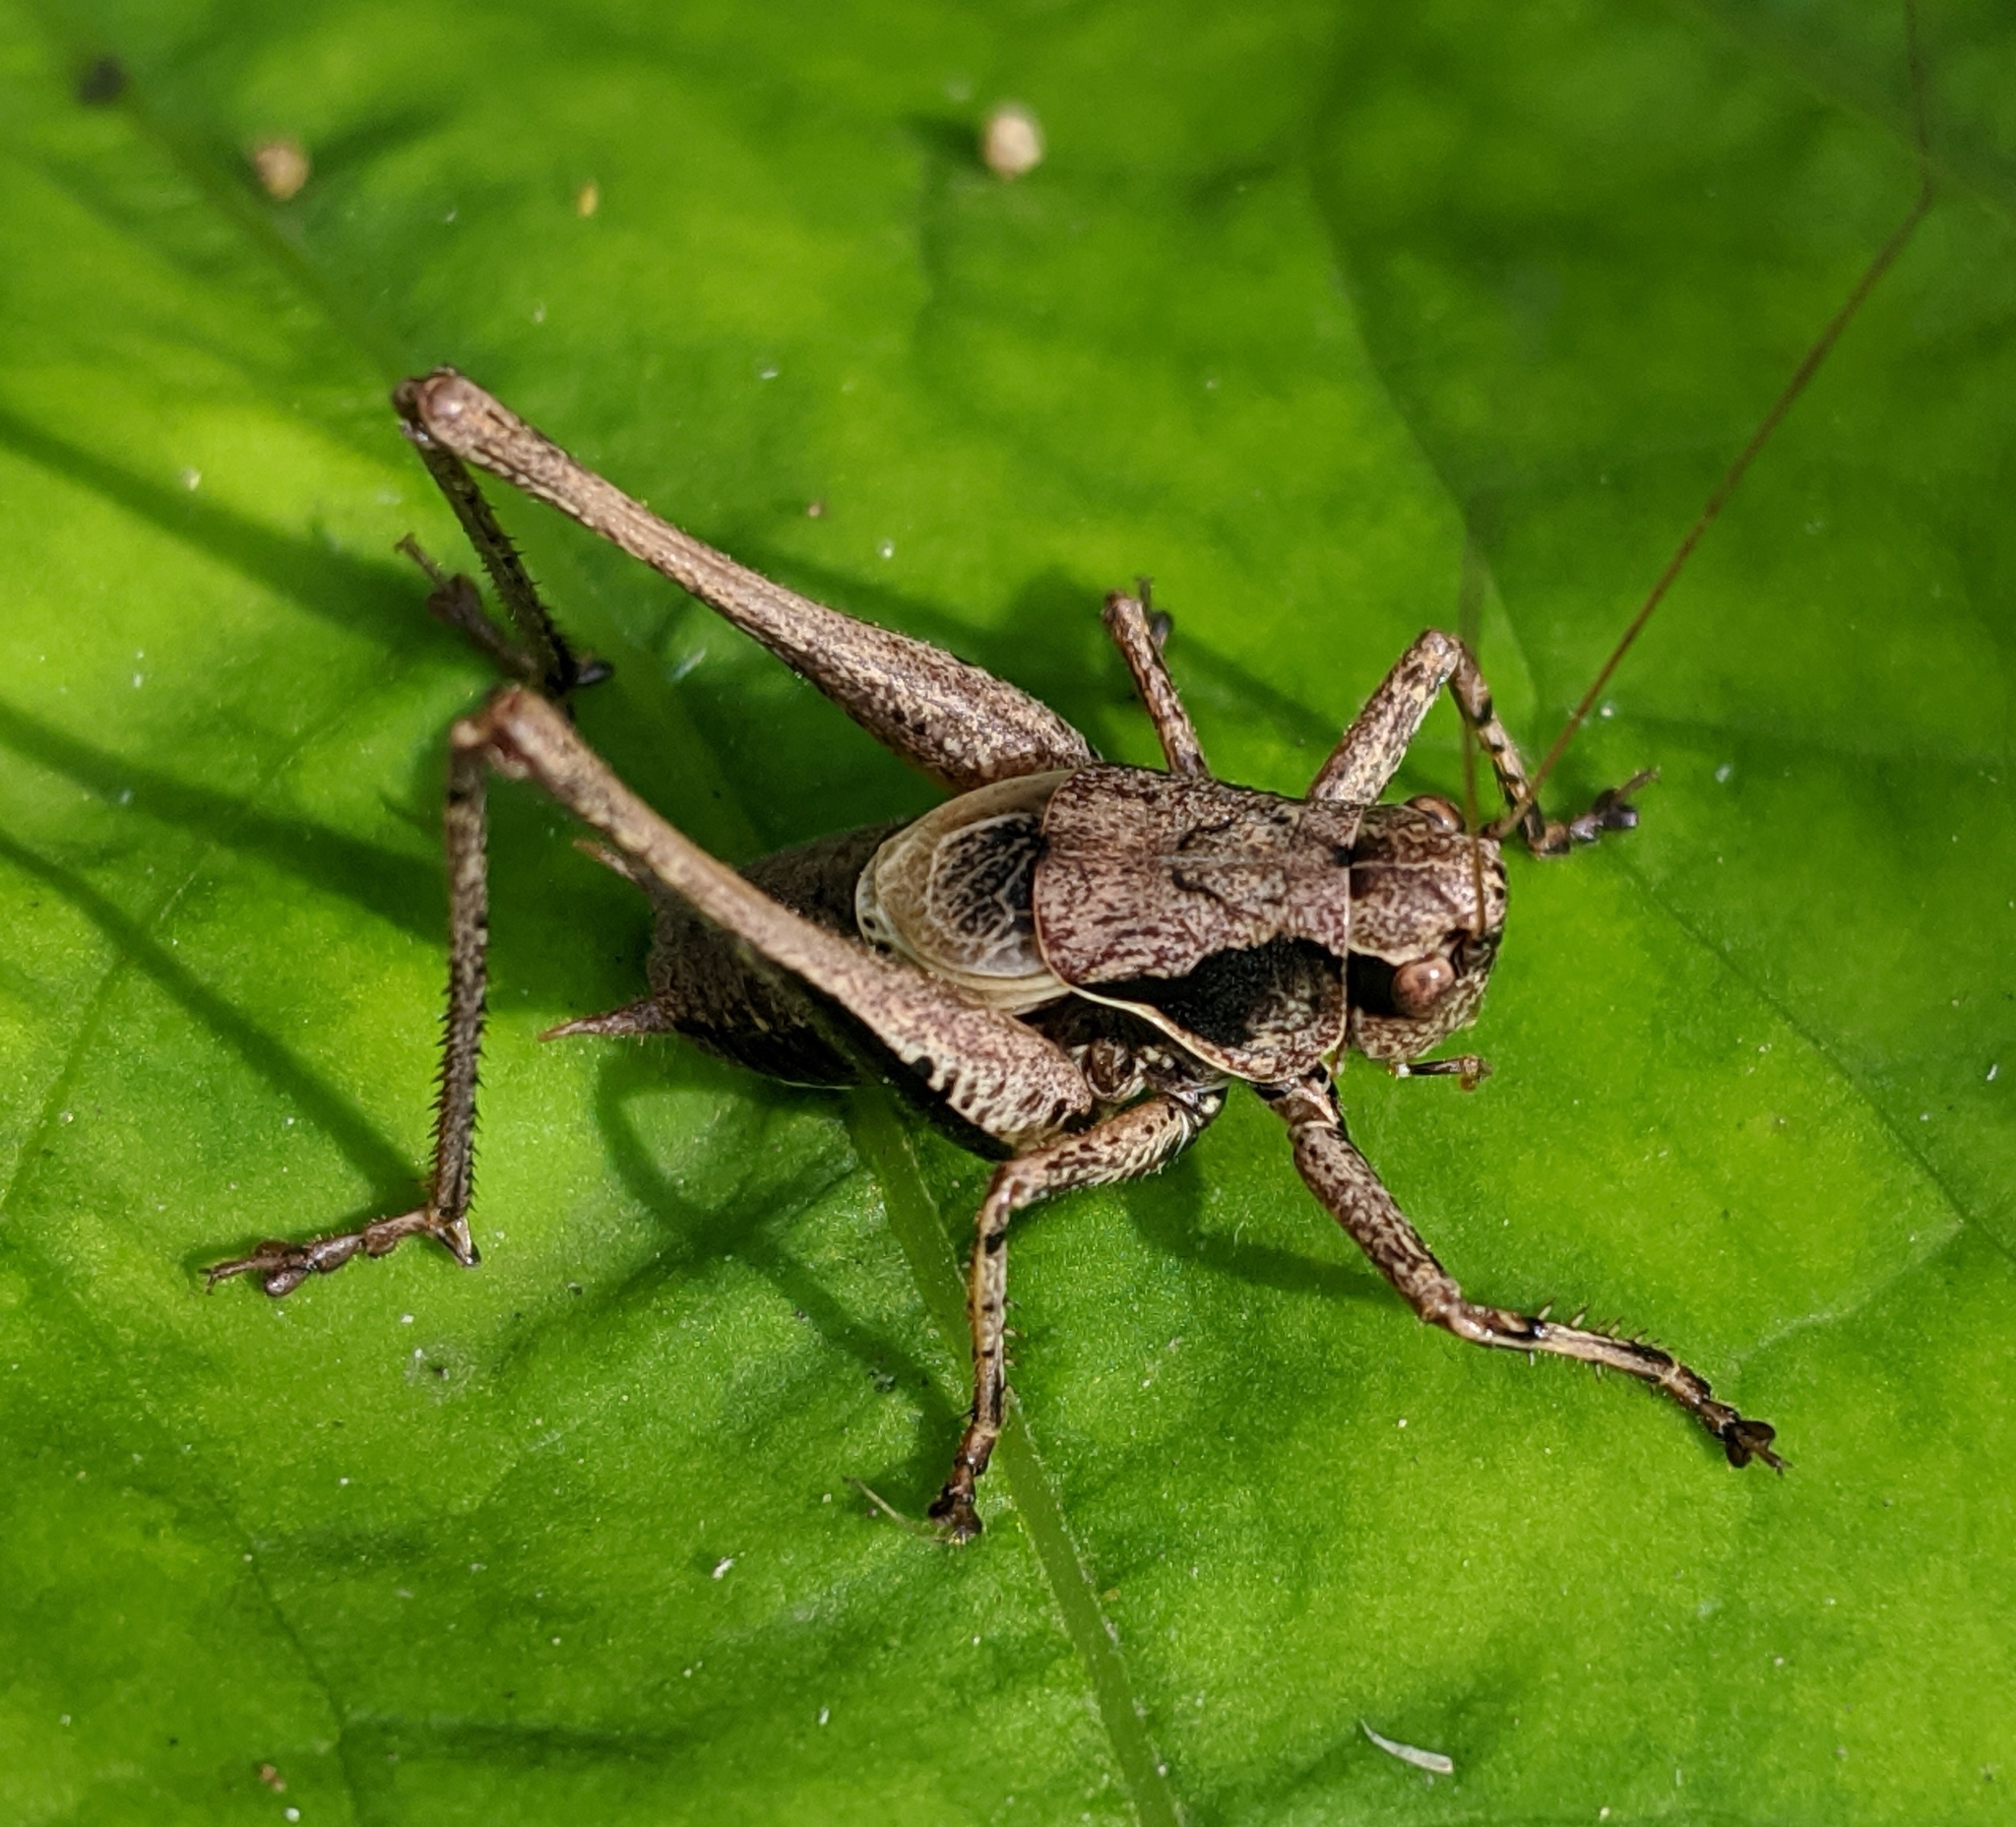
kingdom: Animalia
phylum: Arthropoda
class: Insecta
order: Orthoptera
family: Tettigoniidae
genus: Pholidoptera
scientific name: Pholidoptera griseoaptera
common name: Dark bush-cricket
